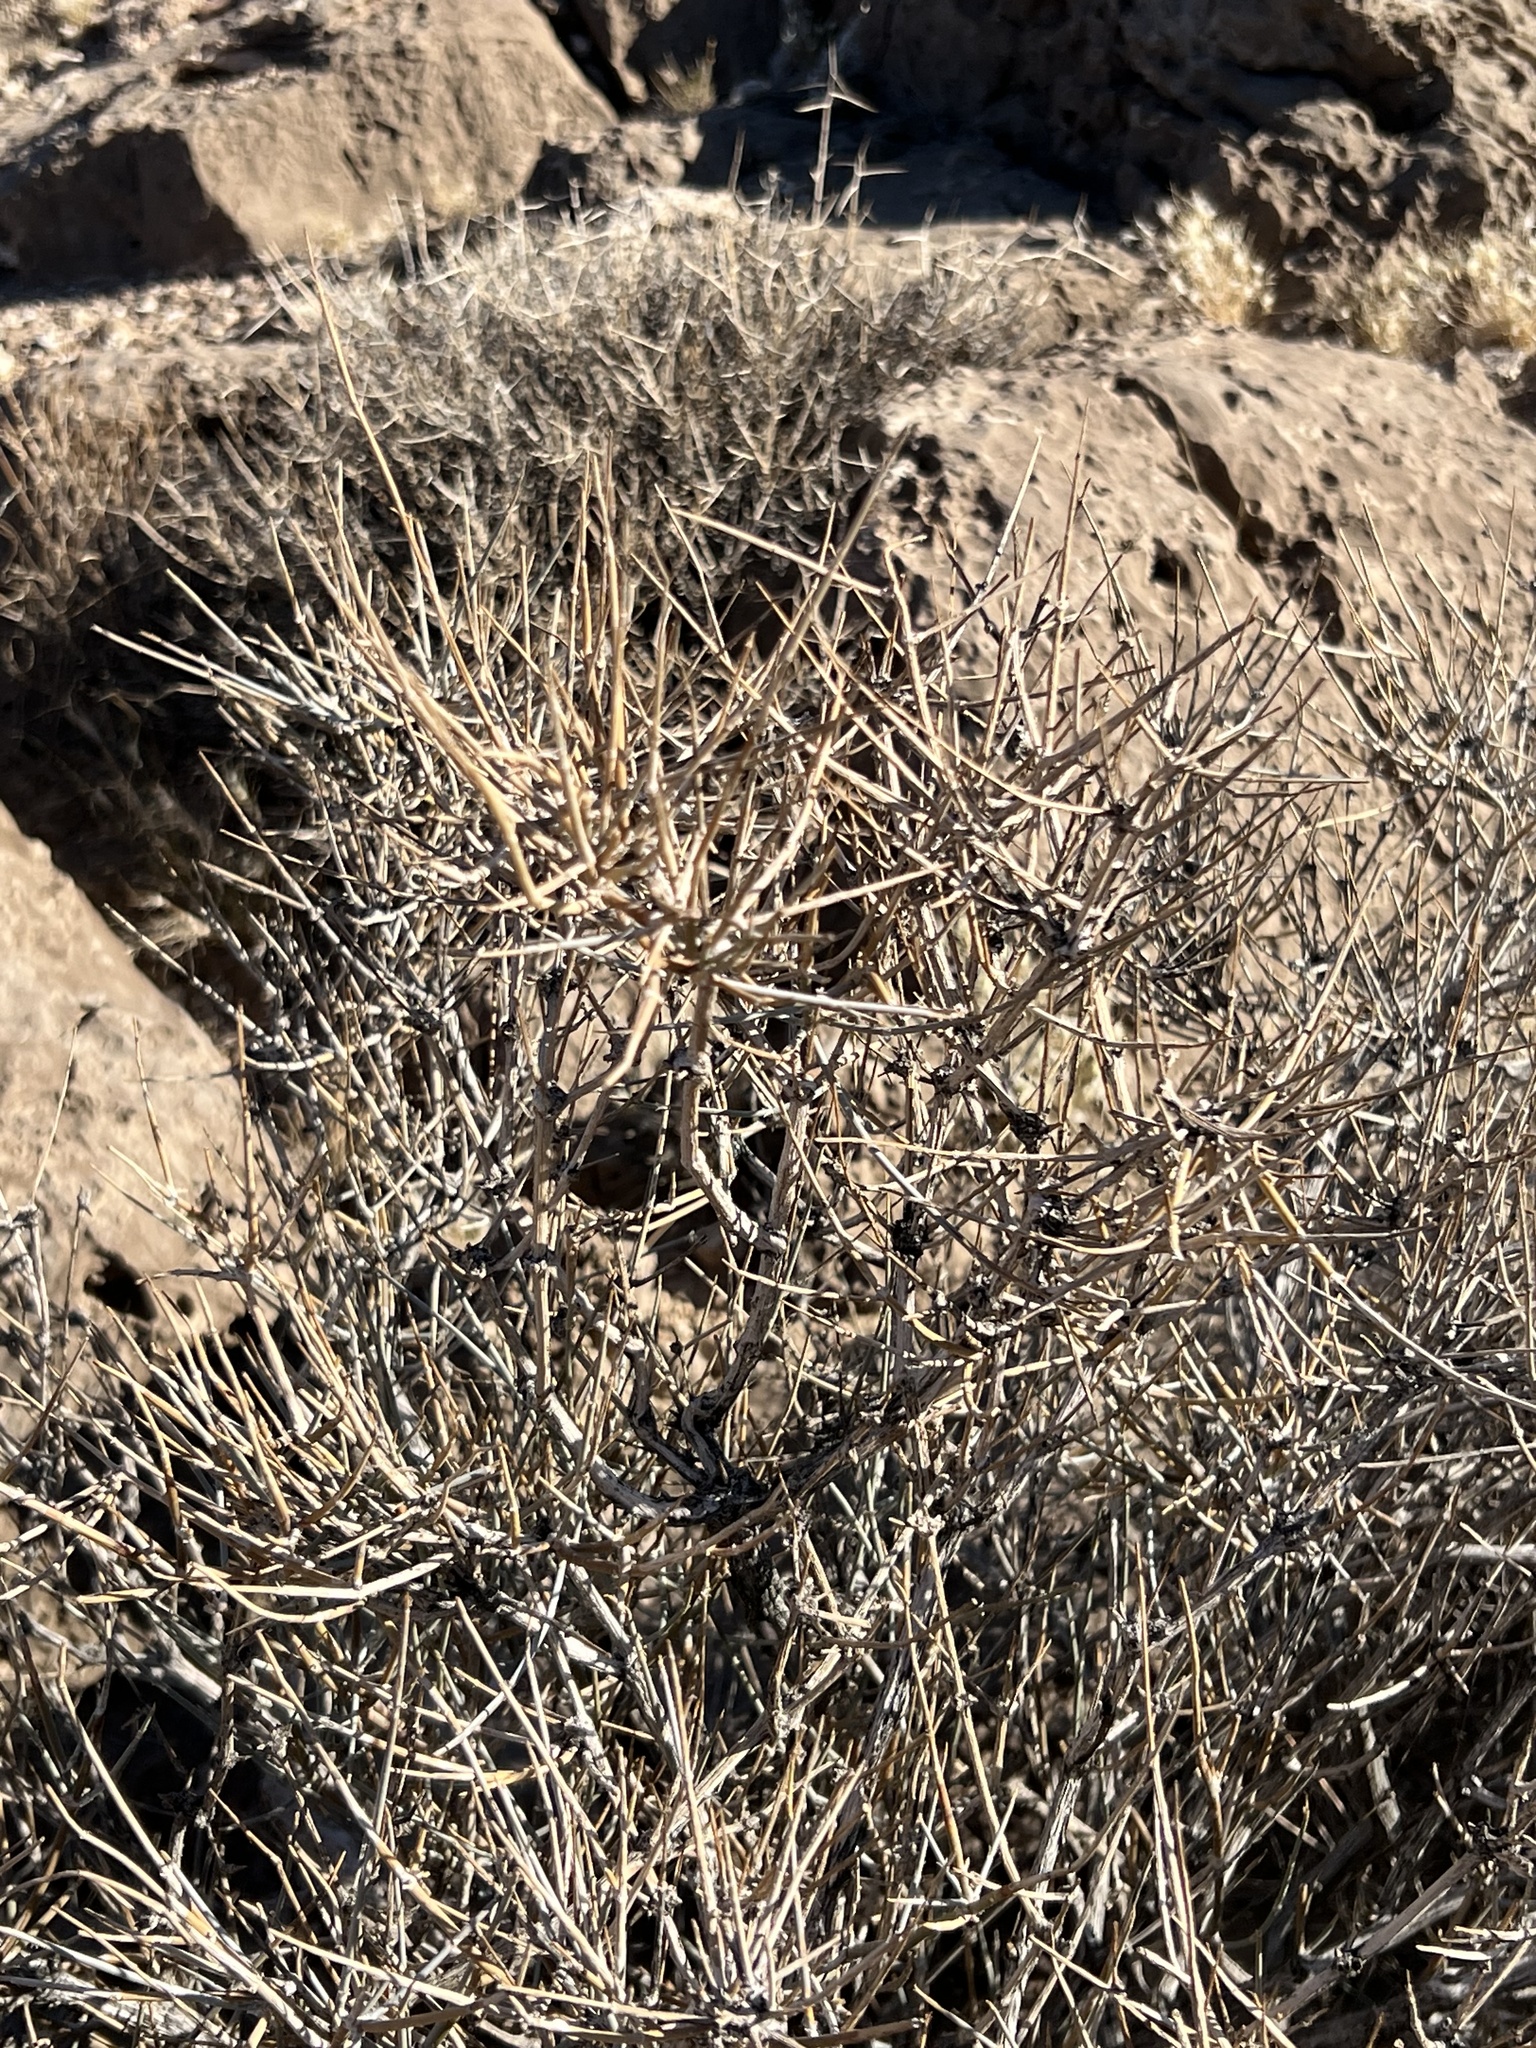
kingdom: Plantae
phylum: Tracheophyta
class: Gnetopsida
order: Ephedrales
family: Ephedraceae
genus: Ephedra
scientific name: Ephedra nevadensis
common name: Gray ephedra
